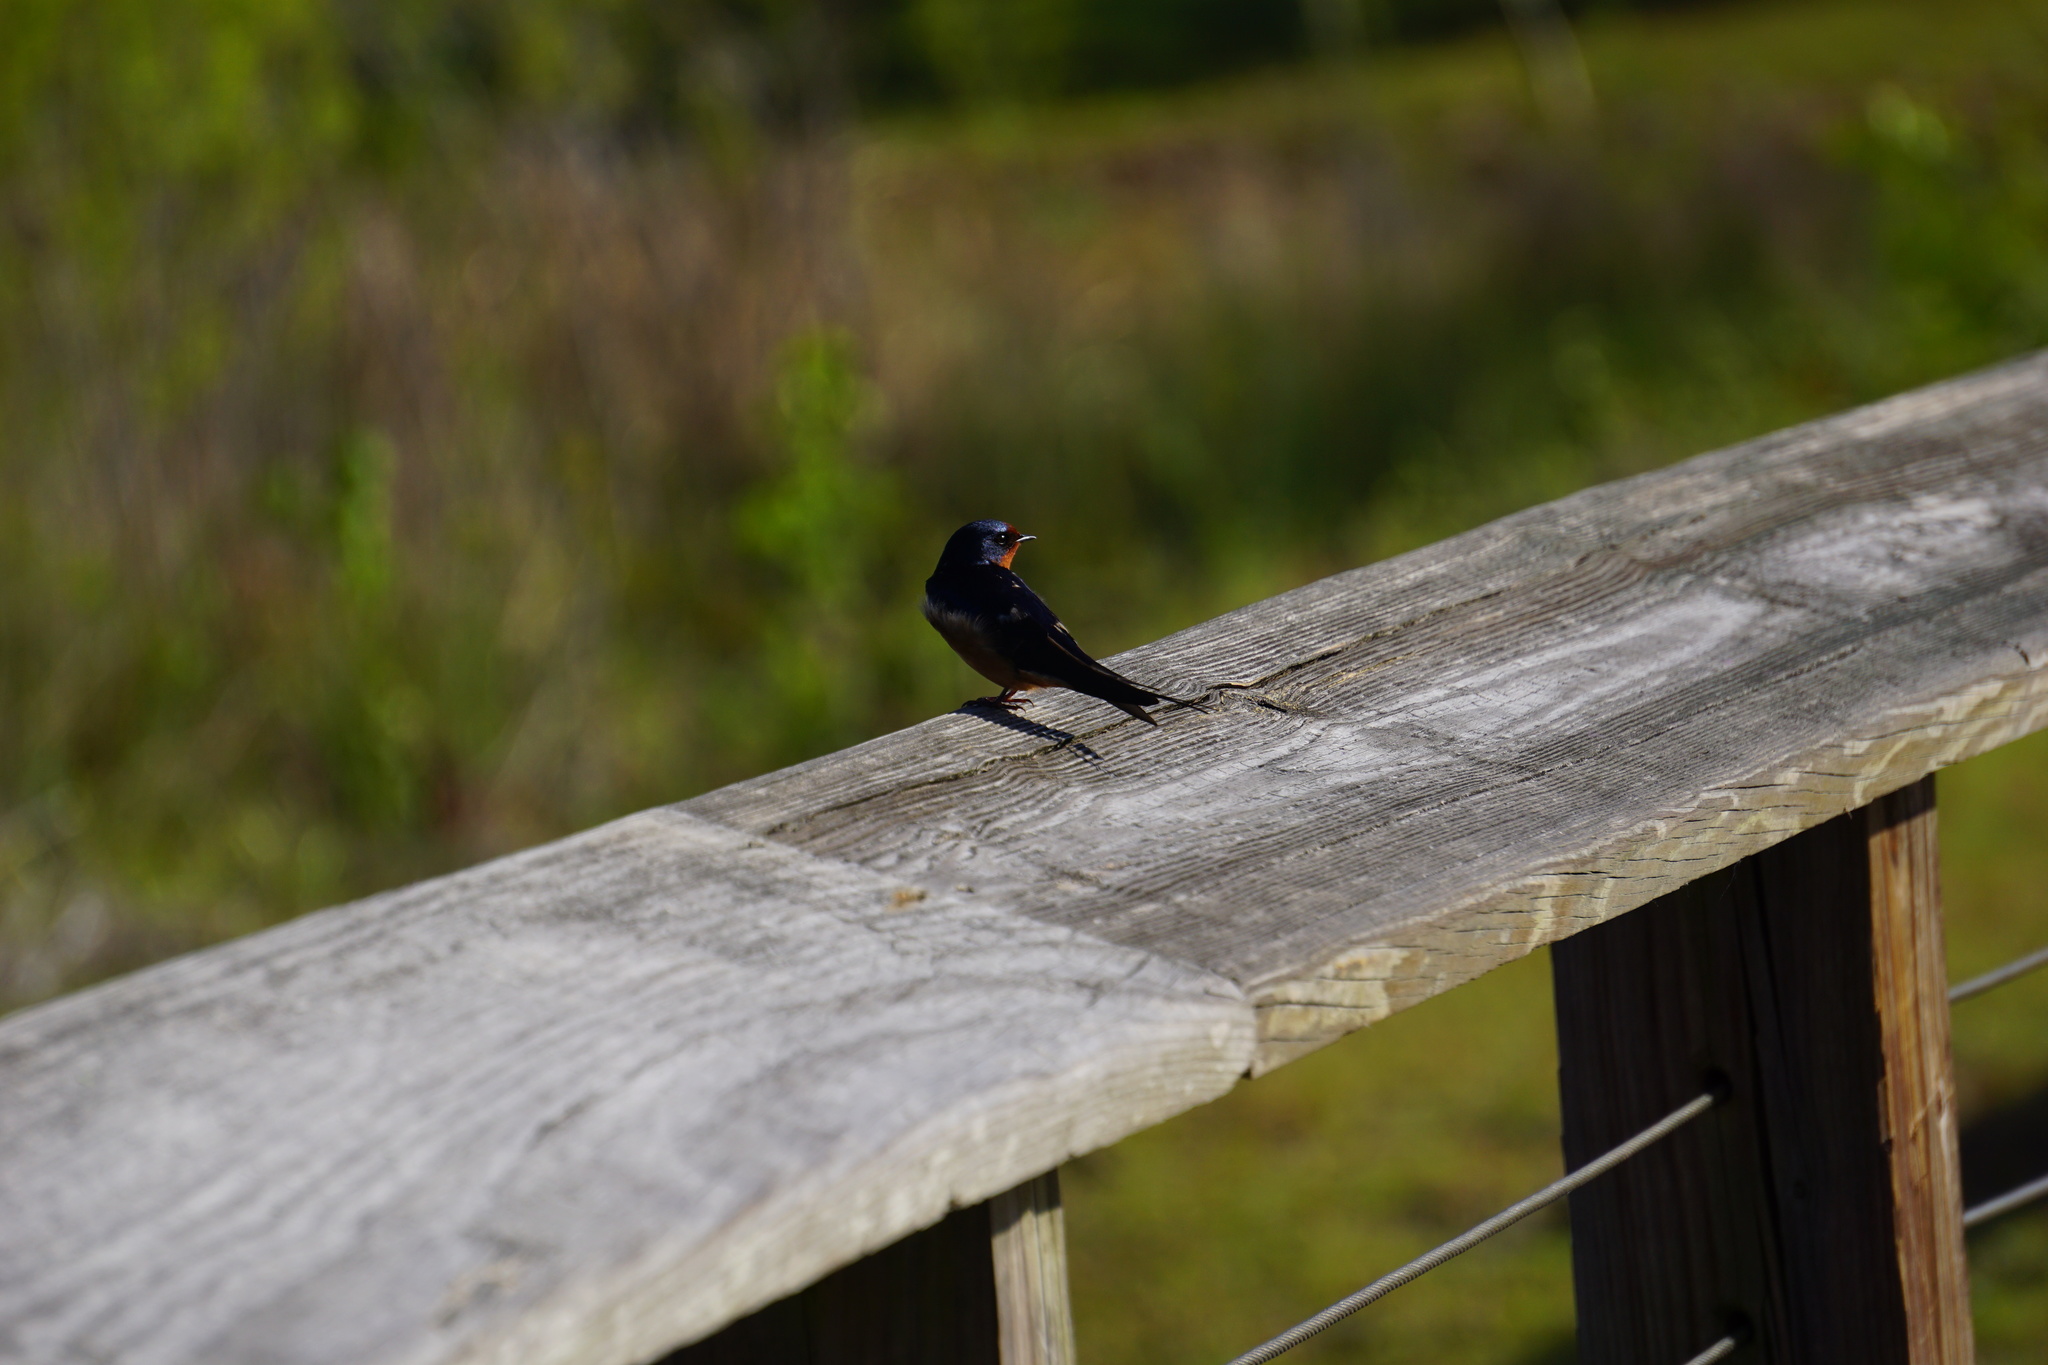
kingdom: Animalia
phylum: Chordata
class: Aves
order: Passeriformes
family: Hirundinidae
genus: Hirundo
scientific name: Hirundo rustica
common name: Barn swallow
